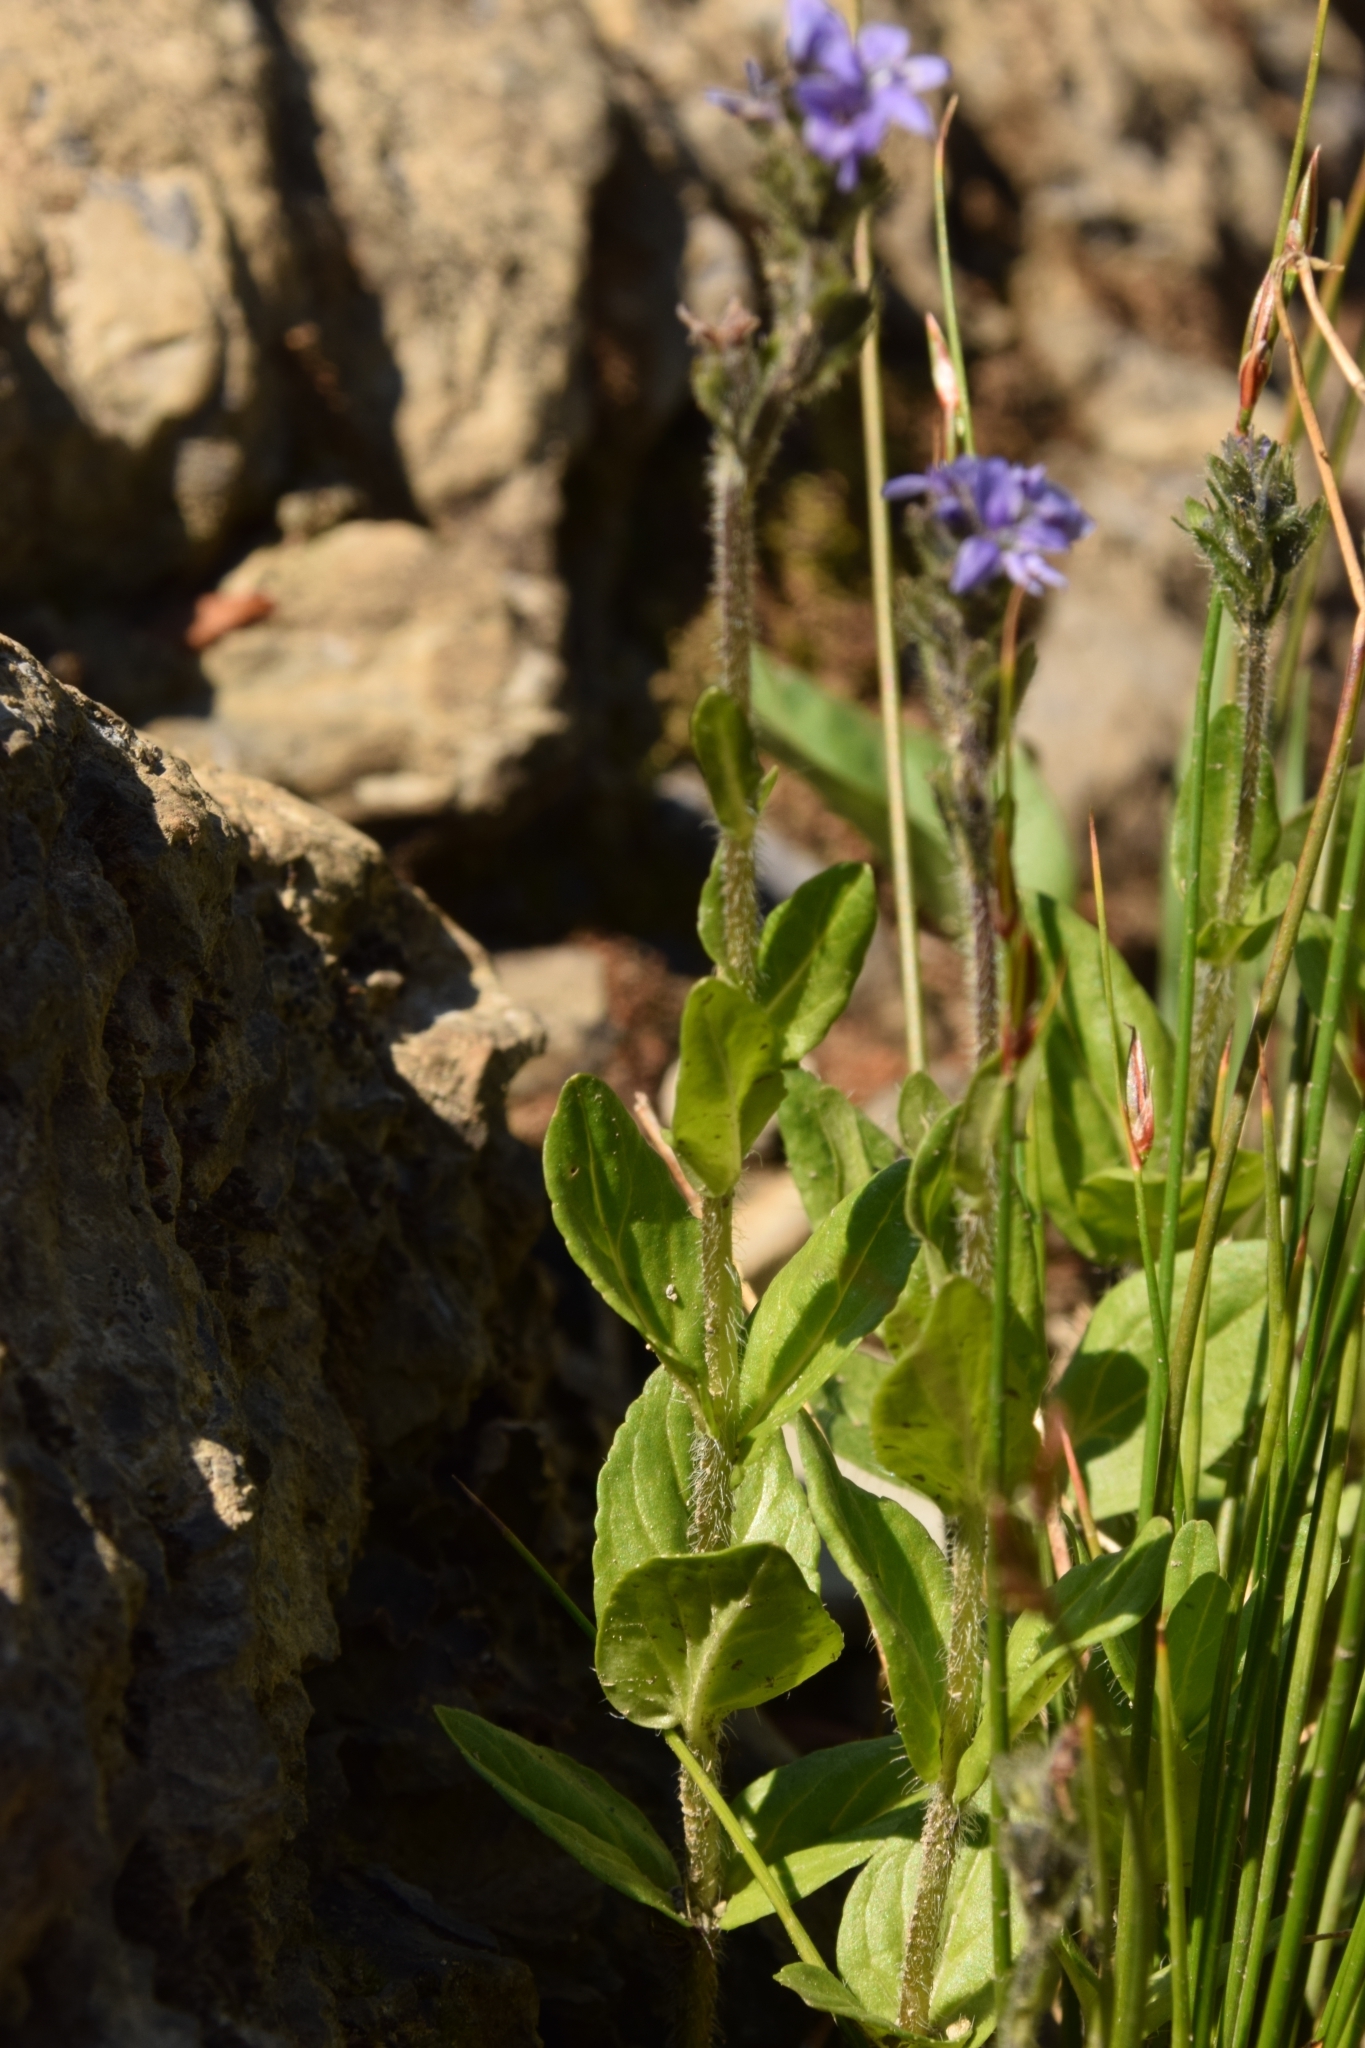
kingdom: Plantae
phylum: Tracheophyta
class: Magnoliopsida
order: Lamiales
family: Plantaginaceae
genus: Veronica
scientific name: Veronica wormskjoldii
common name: American alpine speedwell
